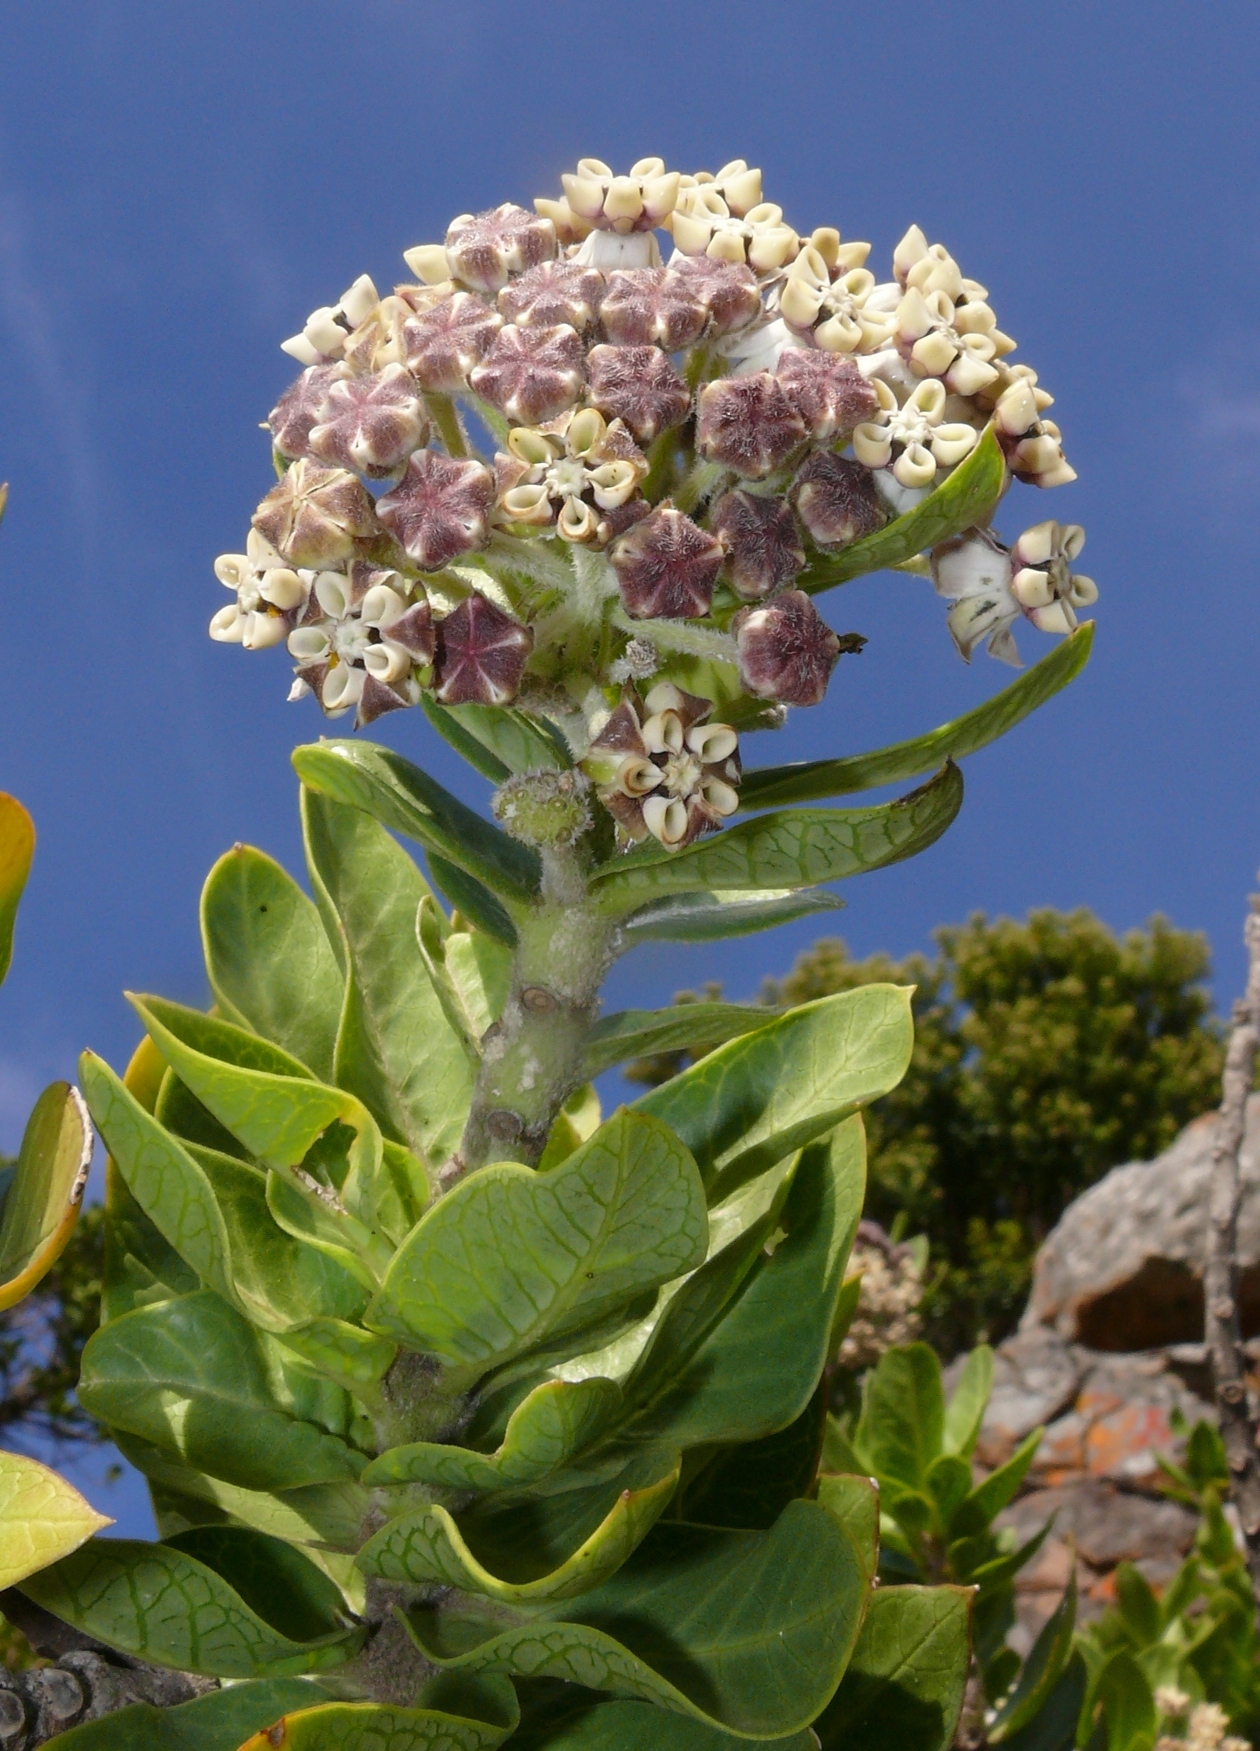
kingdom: Plantae
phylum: Tracheophyta
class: Magnoliopsida
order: Gentianales
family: Apocynaceae
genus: Gomphocarpus
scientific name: Gomphocarpus cancellatus
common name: Wild cotton
